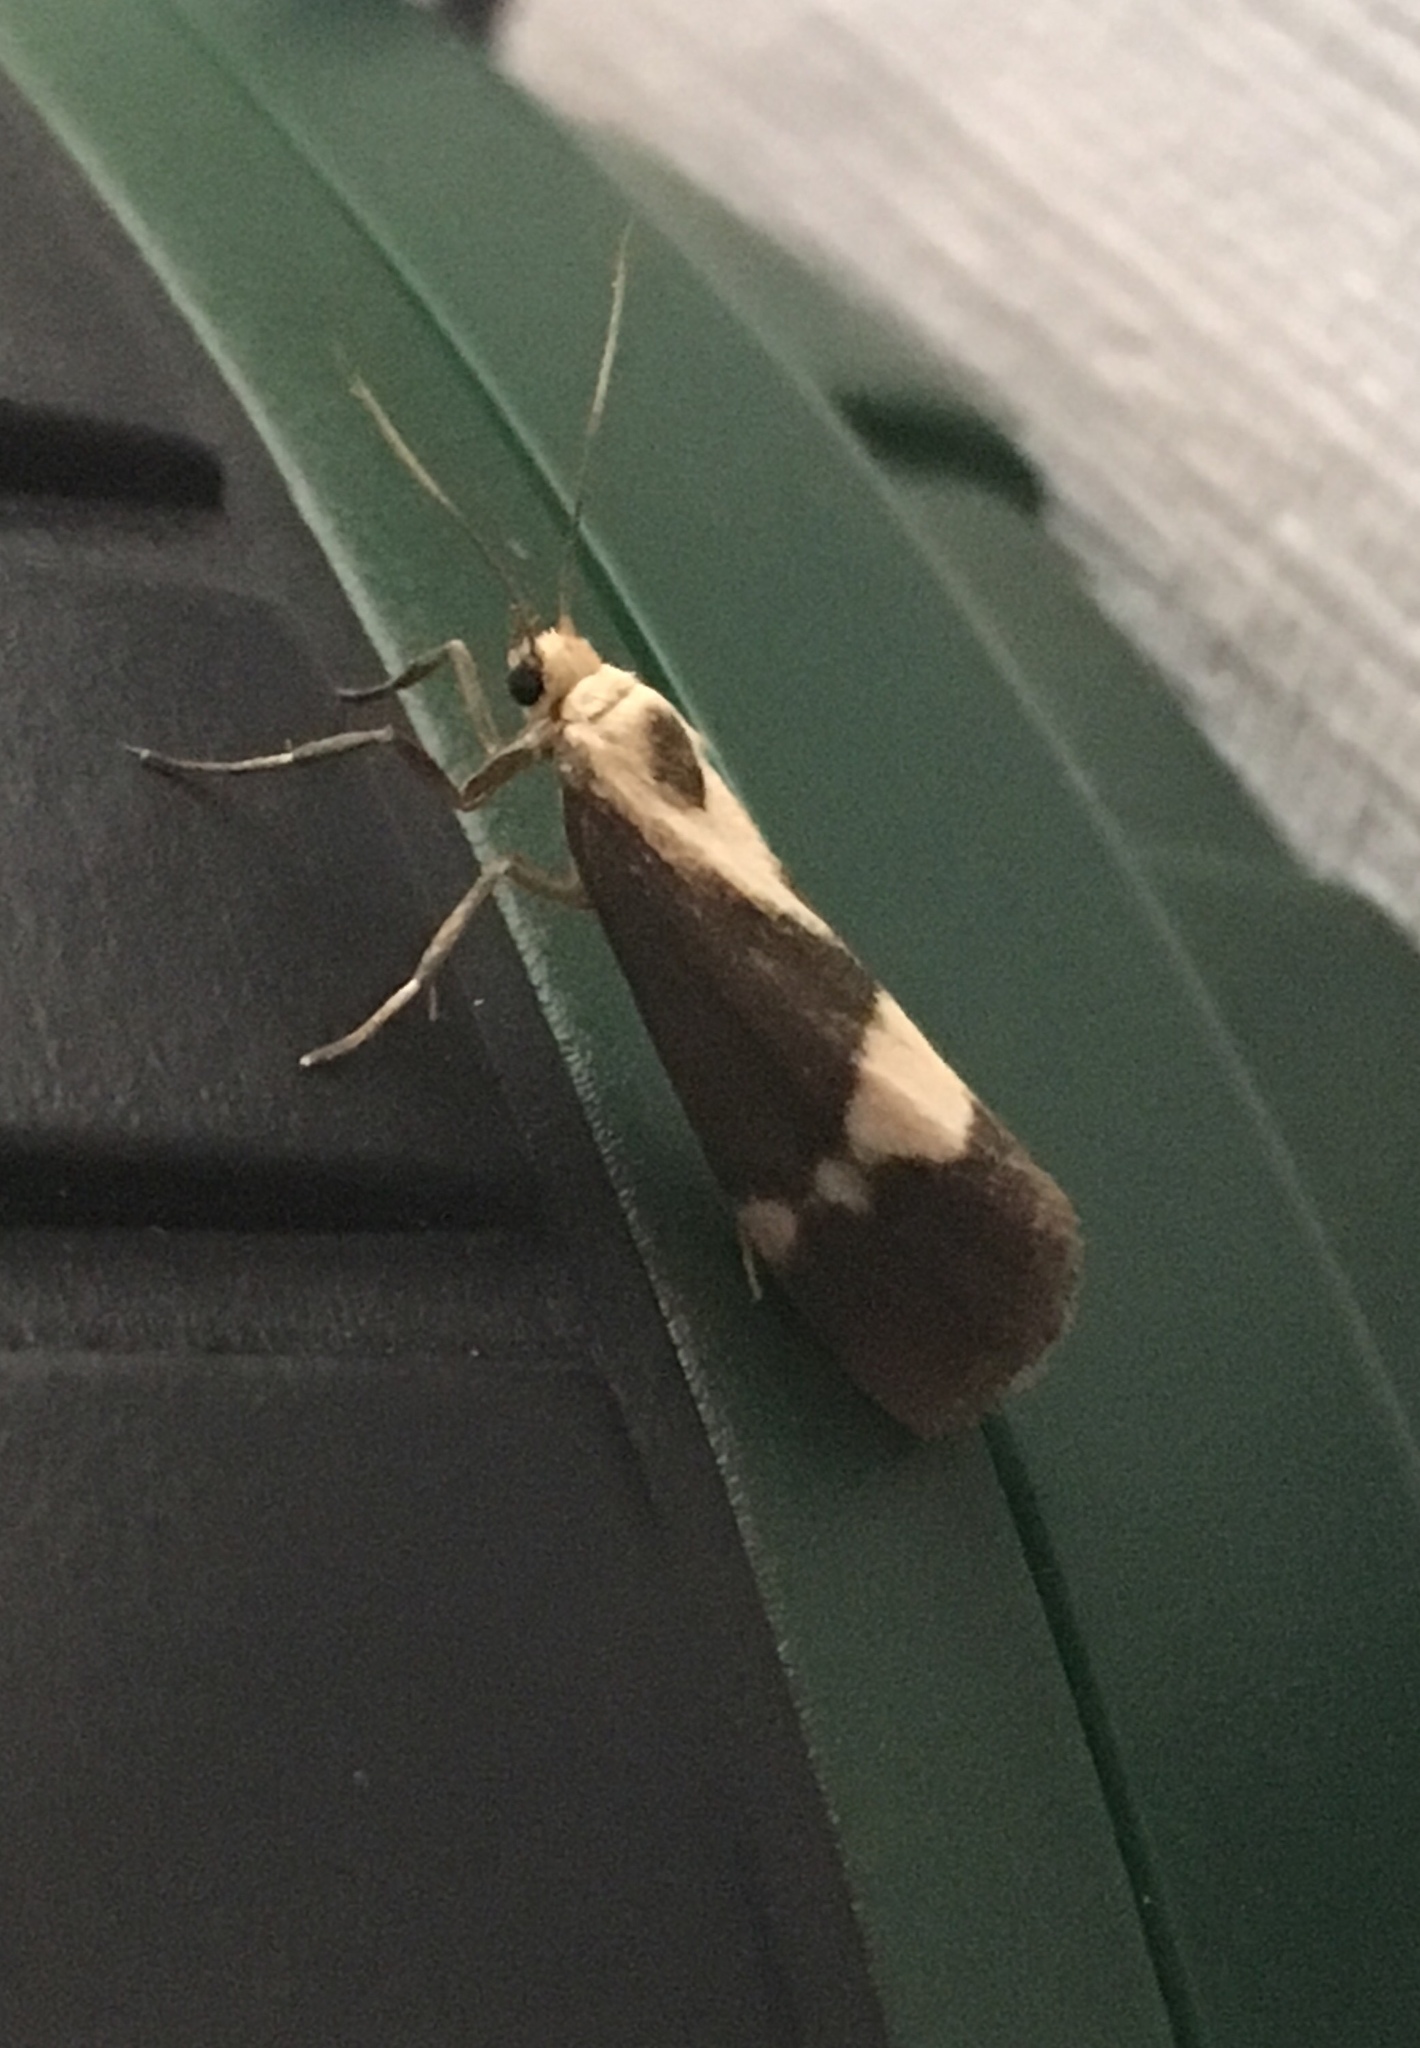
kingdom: Animalia
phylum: Arthropoda
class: Insecta
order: Lepidoptera
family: Erebidae
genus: Cisthene
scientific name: Cisthene faustinula
